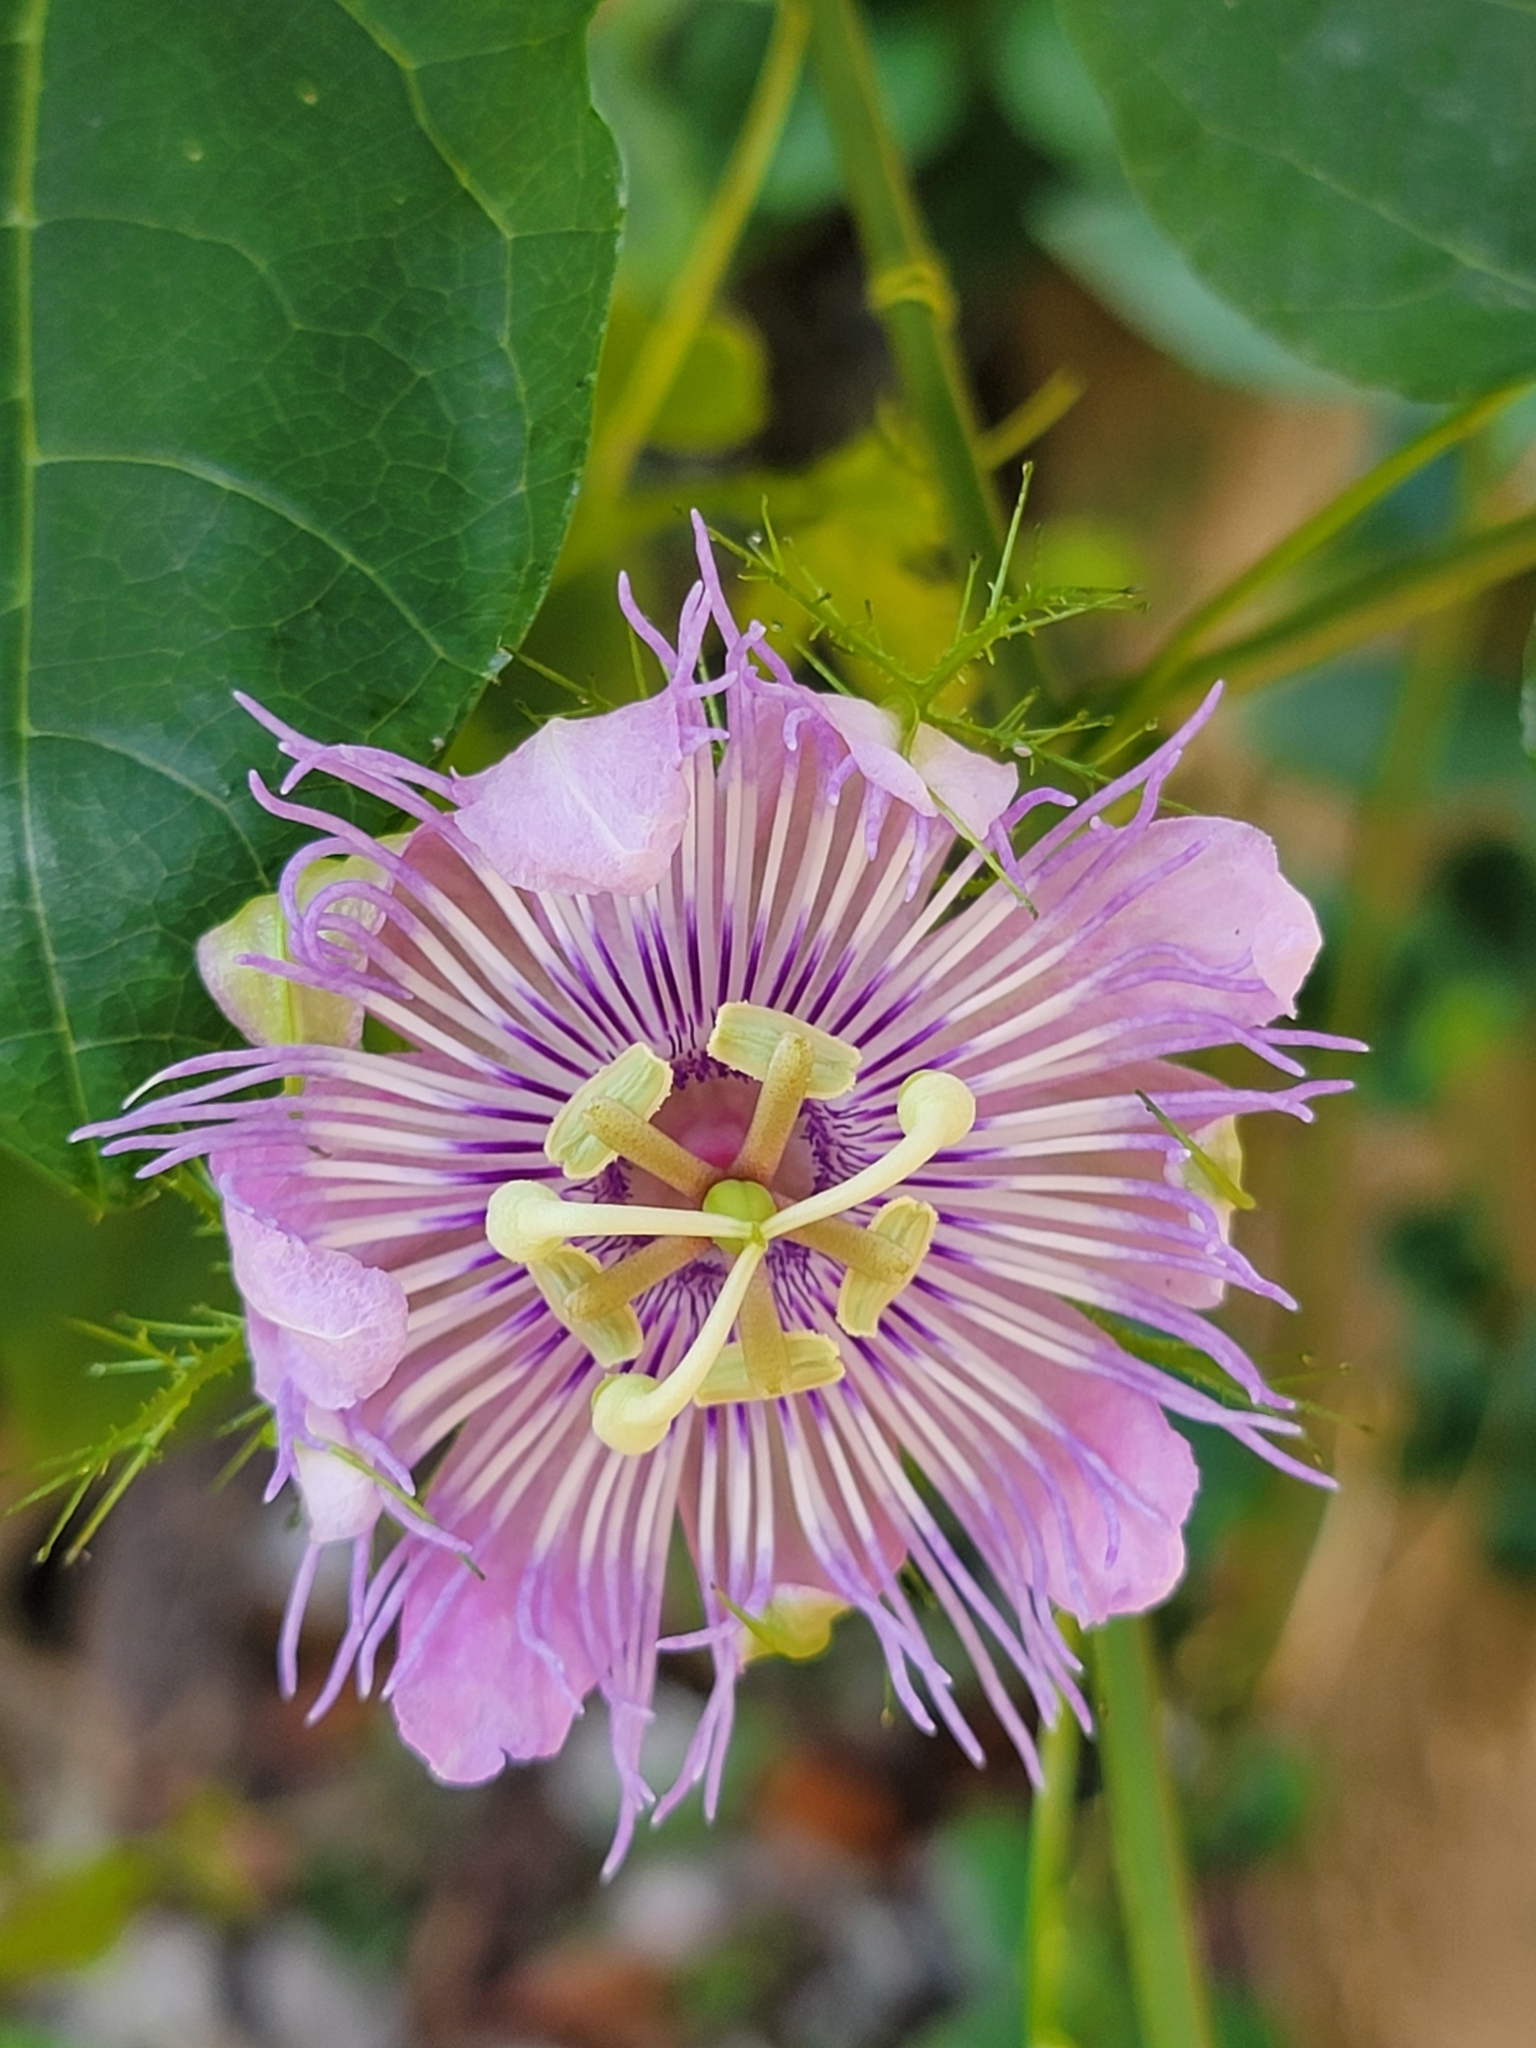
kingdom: Plantae
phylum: Tracheophyta
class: Magnoliopsida
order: Malpighiales
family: Passifloraceae
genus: Passiflora
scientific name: Passiflora ciliata
